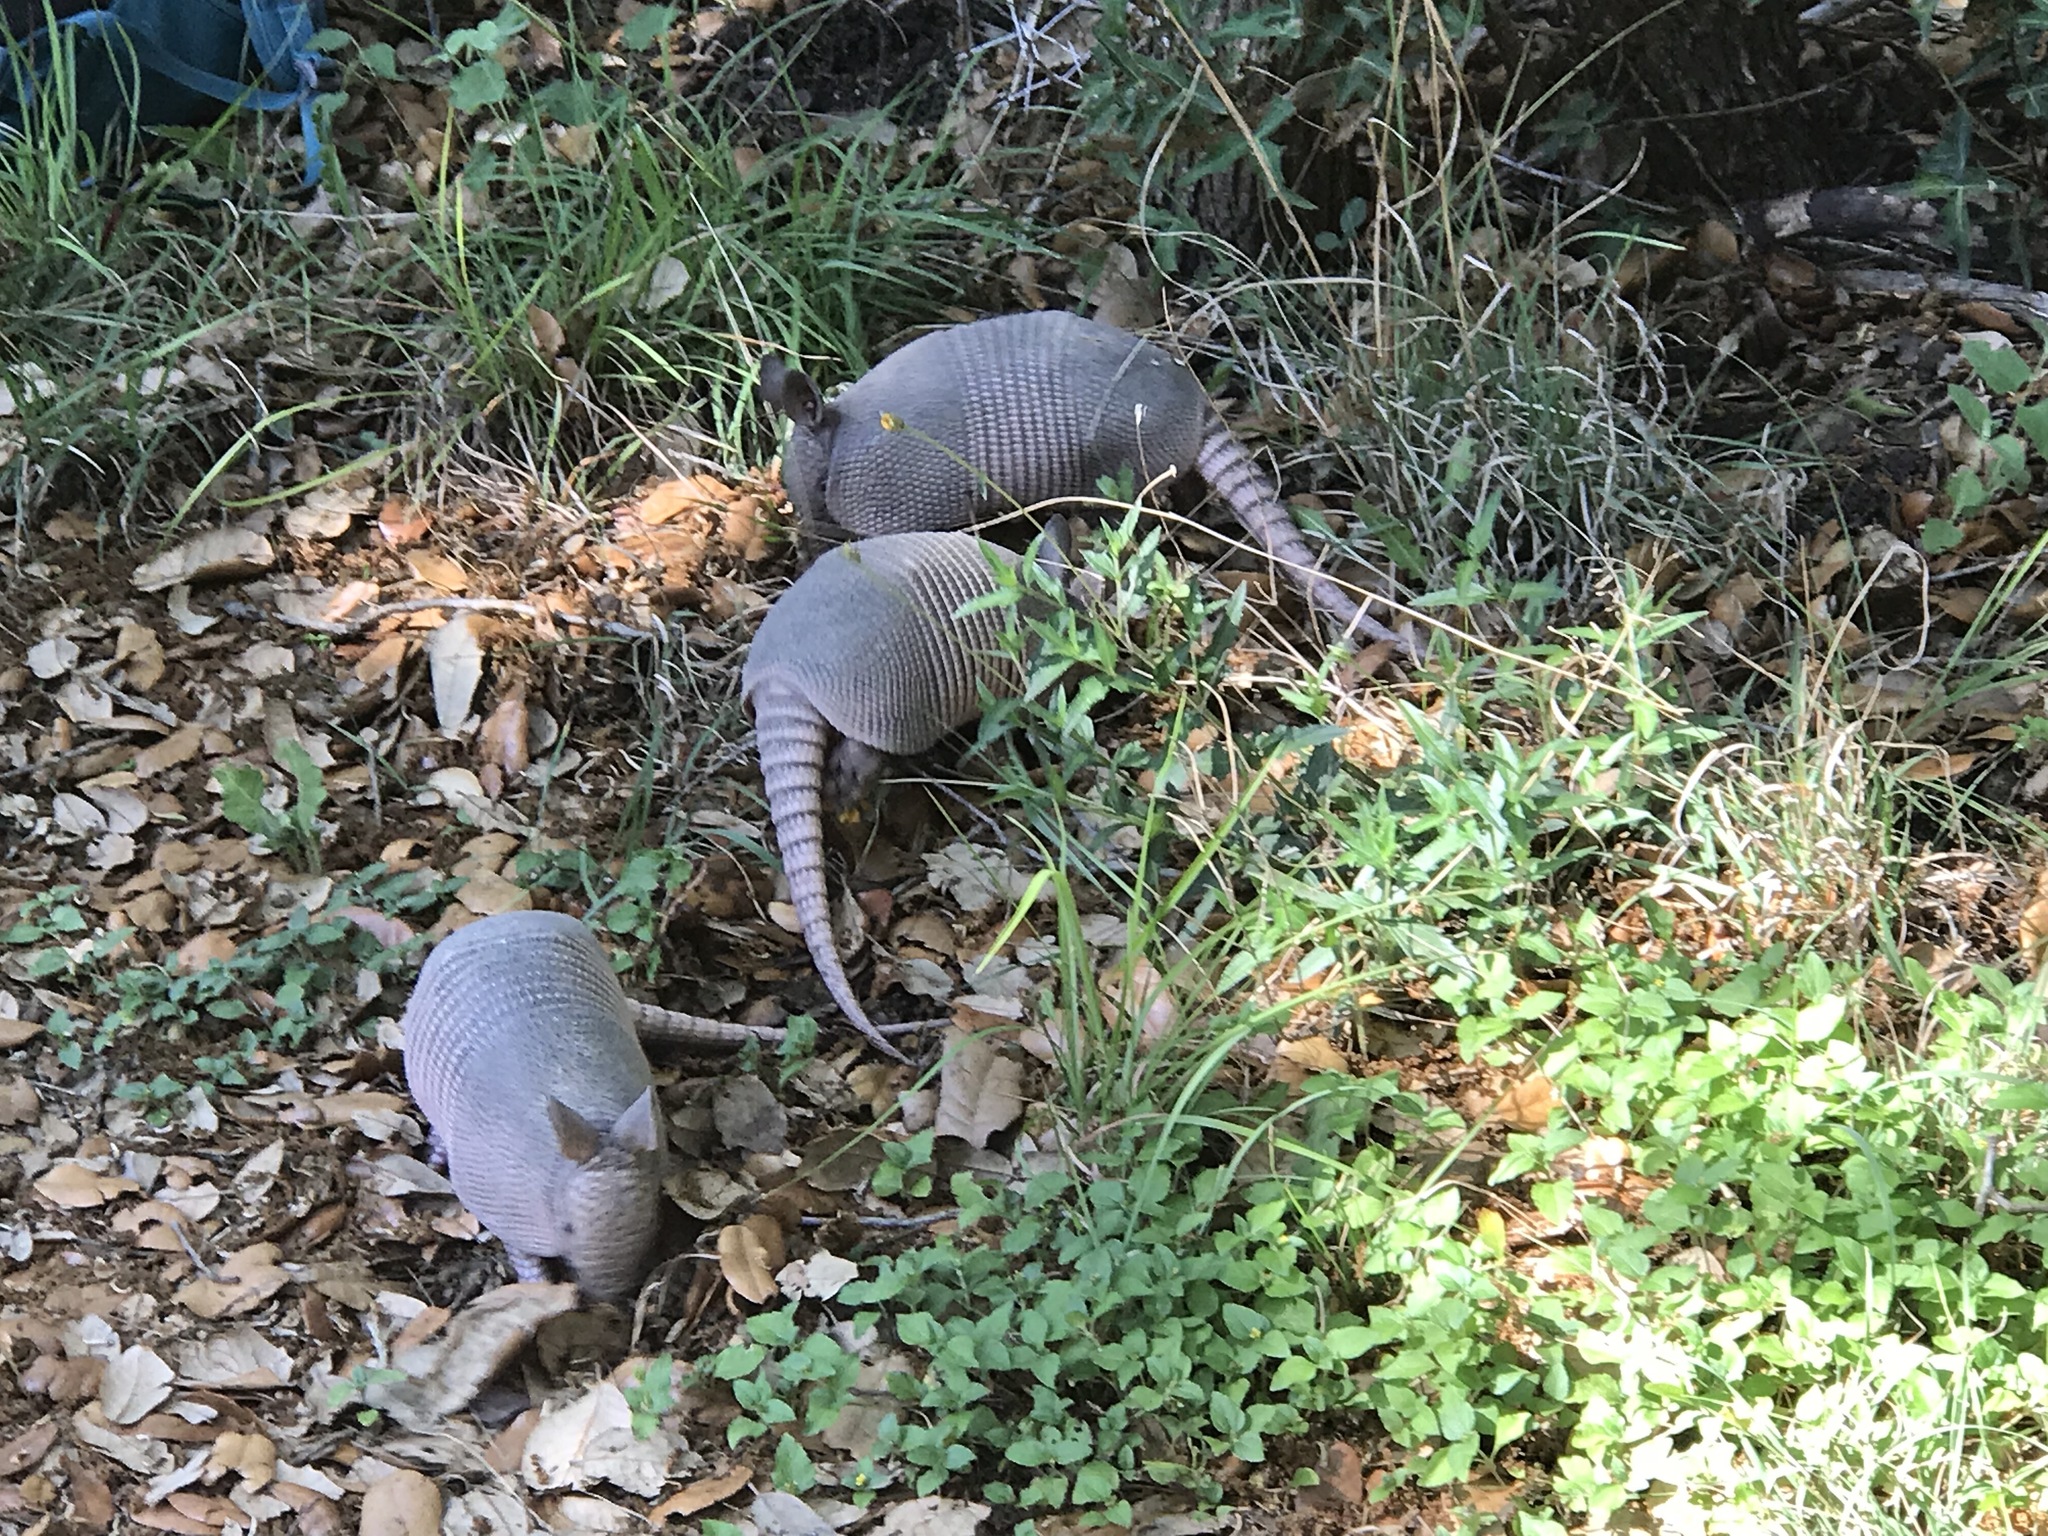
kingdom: Animalia
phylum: Chordata
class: Mammalia
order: Cingulata
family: Dasypodidae
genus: Dasypus
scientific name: Dasypus novemcinctus
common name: Nine-banded armadillo
